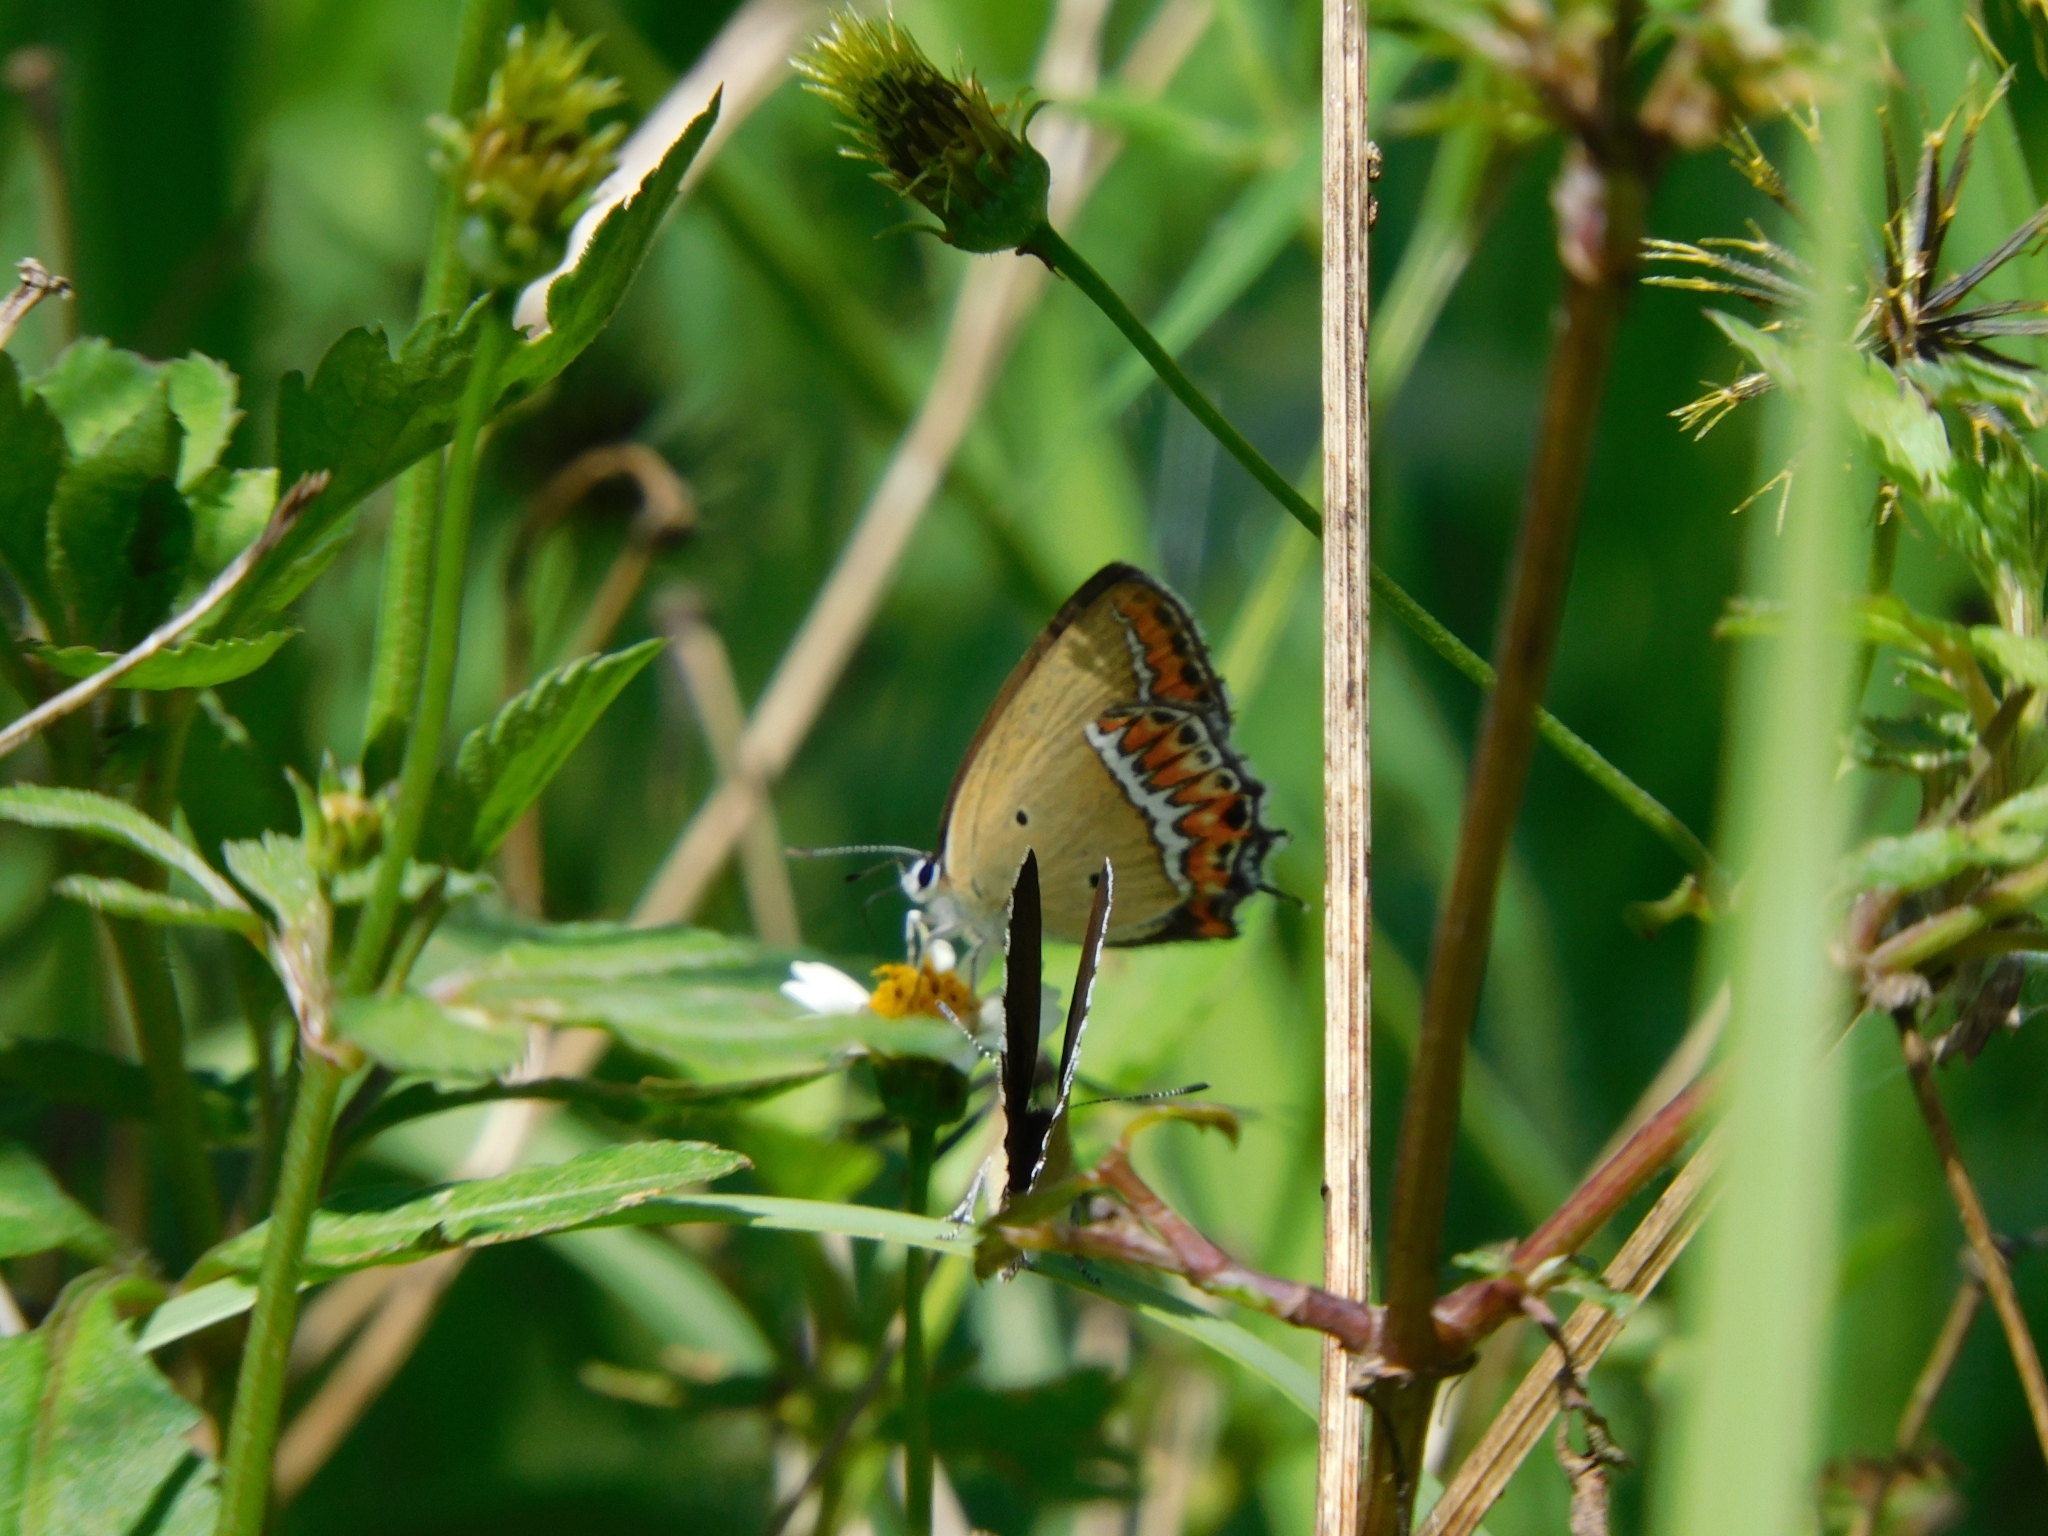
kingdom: Animalia
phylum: Arthropoda
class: Insecta
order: Lepidoptera
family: Lycaenidae
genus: Heliophorus
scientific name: Heliophorus sena
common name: Sorrel sapphire
